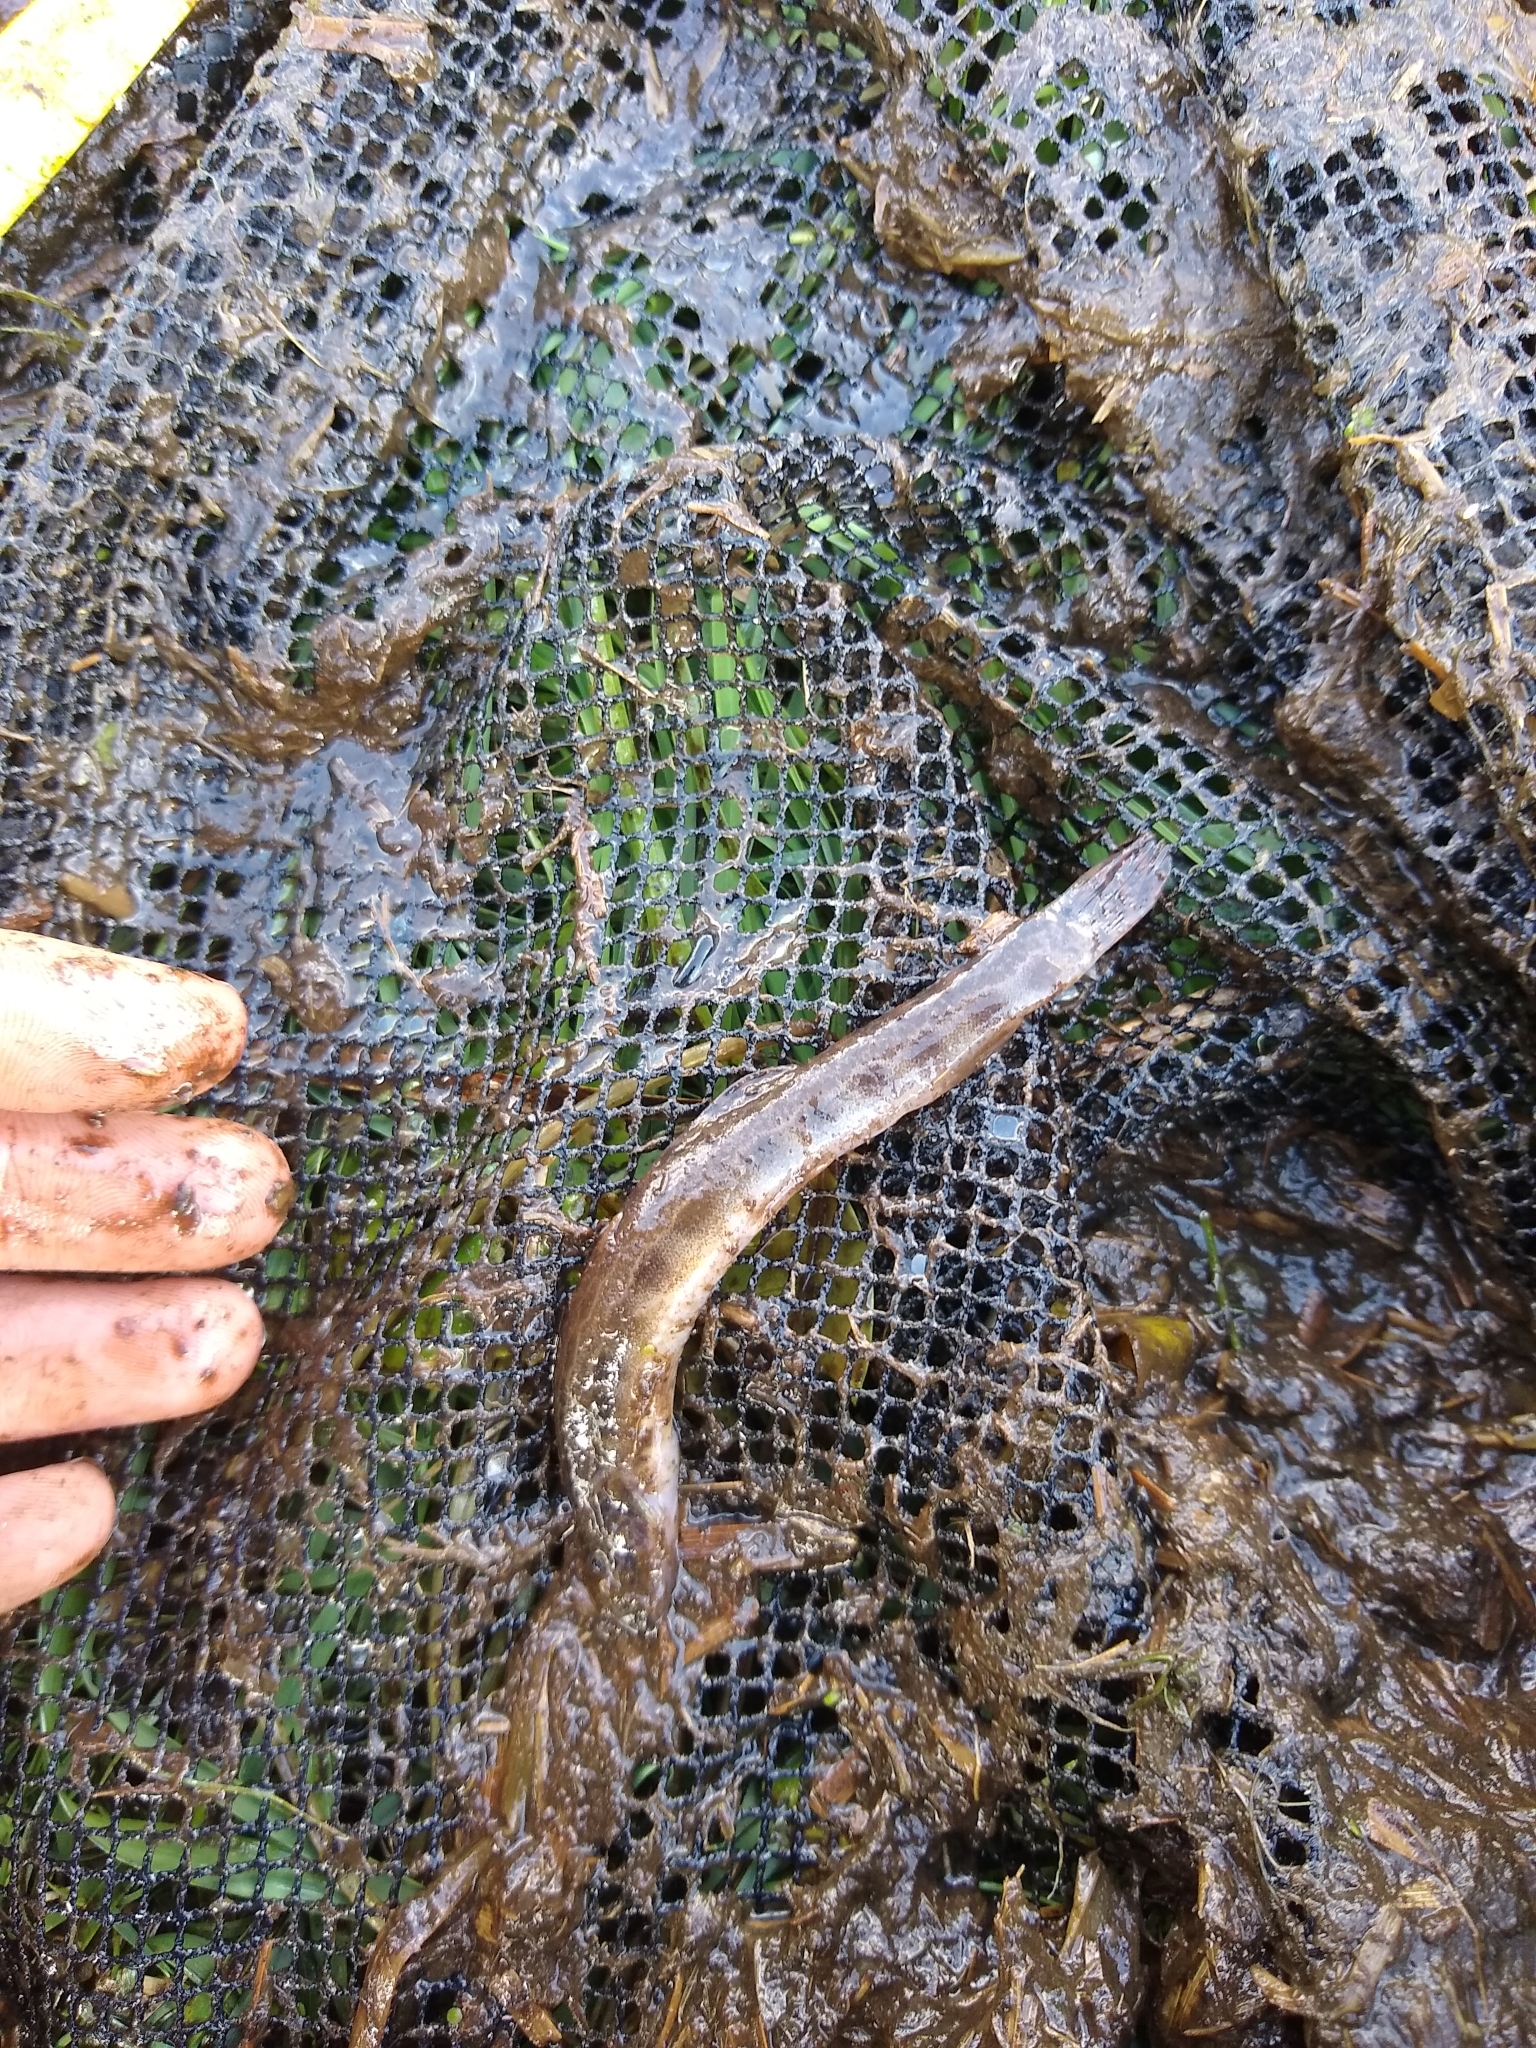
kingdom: Animalia
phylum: Chordata
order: Cypriniformes
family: Cobitidae
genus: Cobitis
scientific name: Cobitis taenia
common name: Spined loach
